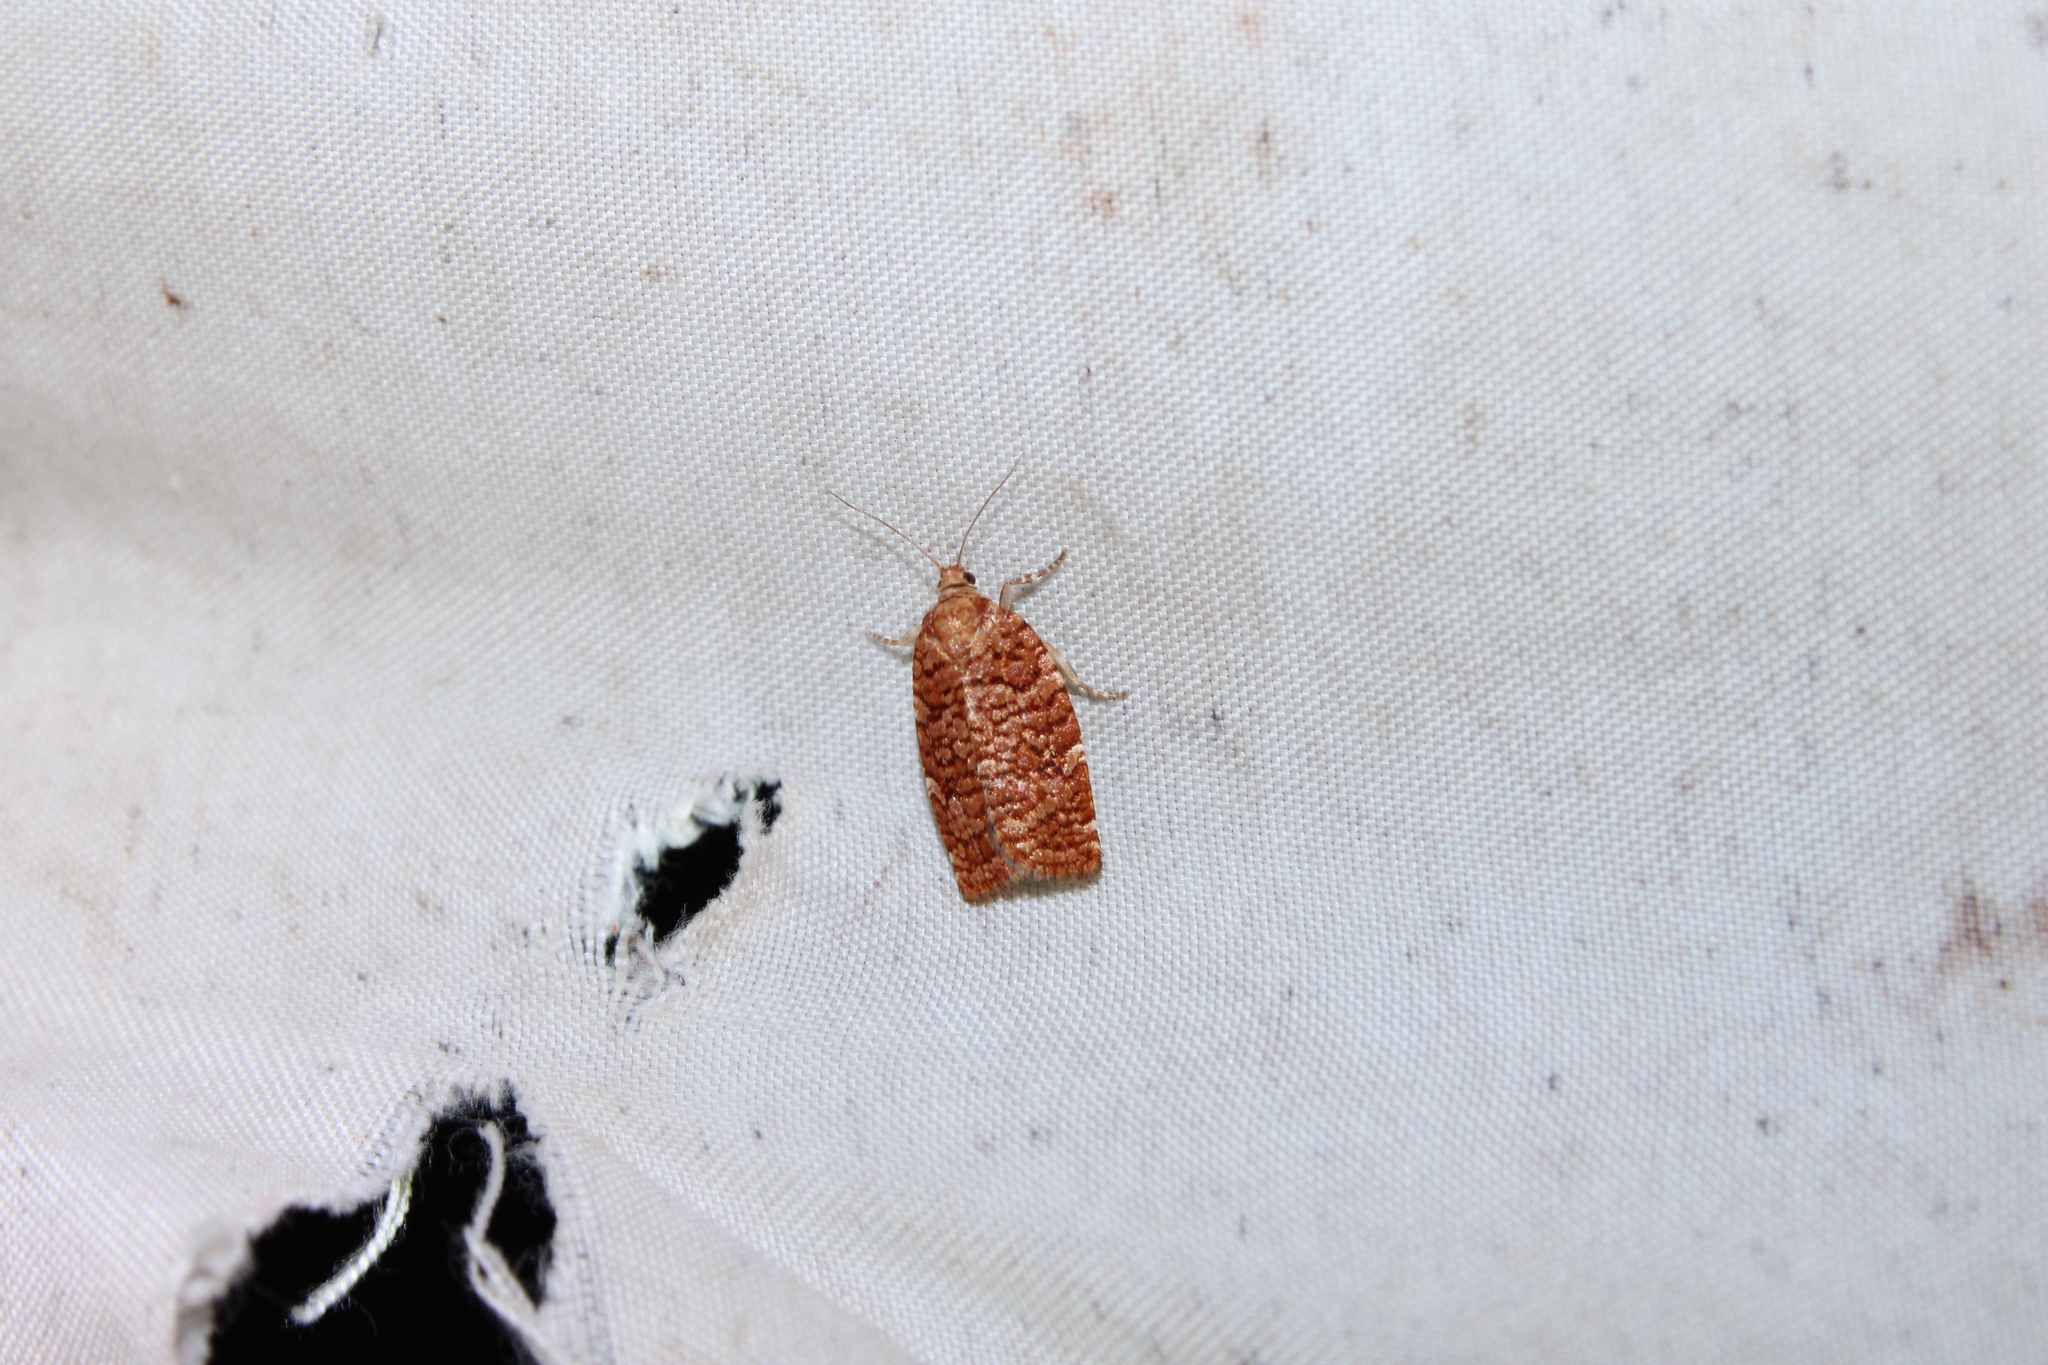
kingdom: Animalia
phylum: Arthropoda
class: Insecta
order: Lepidoptera
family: Tortricidae
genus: Choristoneura
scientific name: Choristoneura pinus
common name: Jack pine budworm
